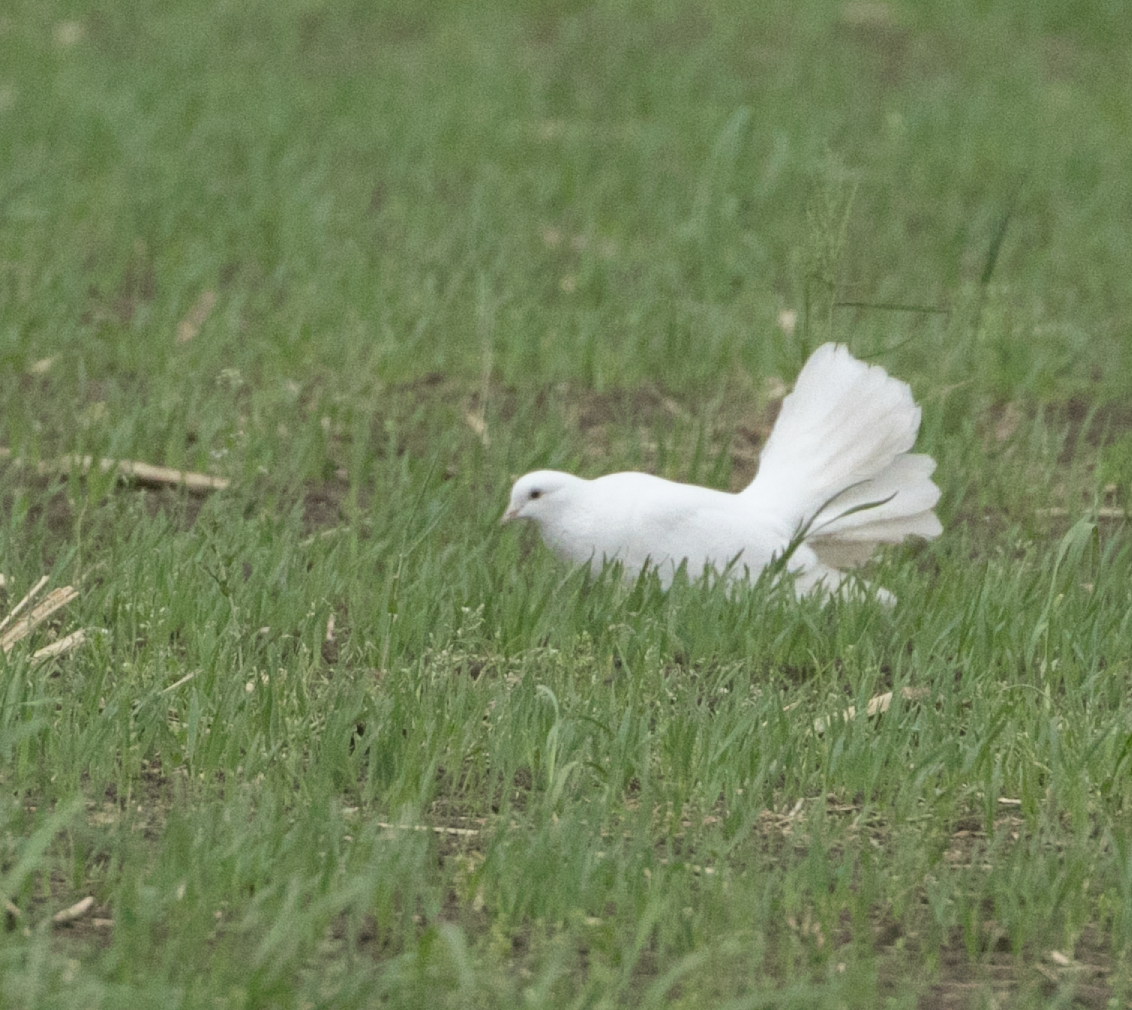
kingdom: Animalia
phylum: Chordata
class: Aves
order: Columbiformes
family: Columbidae
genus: Columba
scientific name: Columba livia
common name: Rock pigeon
